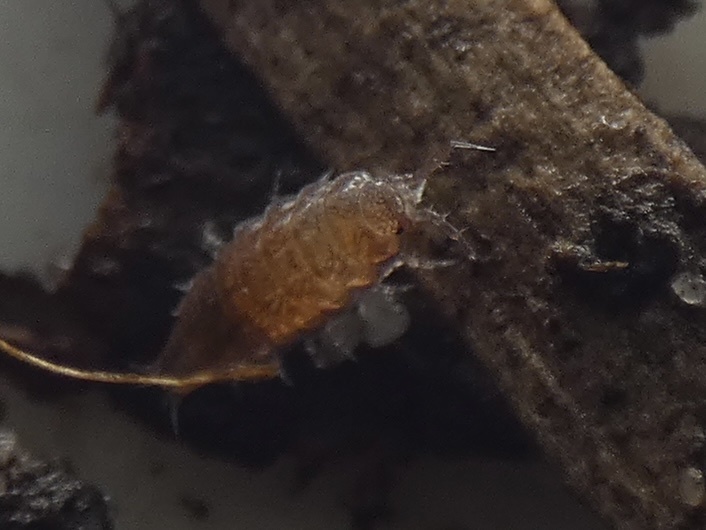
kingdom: Animalia
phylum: Arthropoda
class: Malacostraca
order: Isopoda
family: Trichoniscidae
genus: Trichoniscus
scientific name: Trichoniscus
